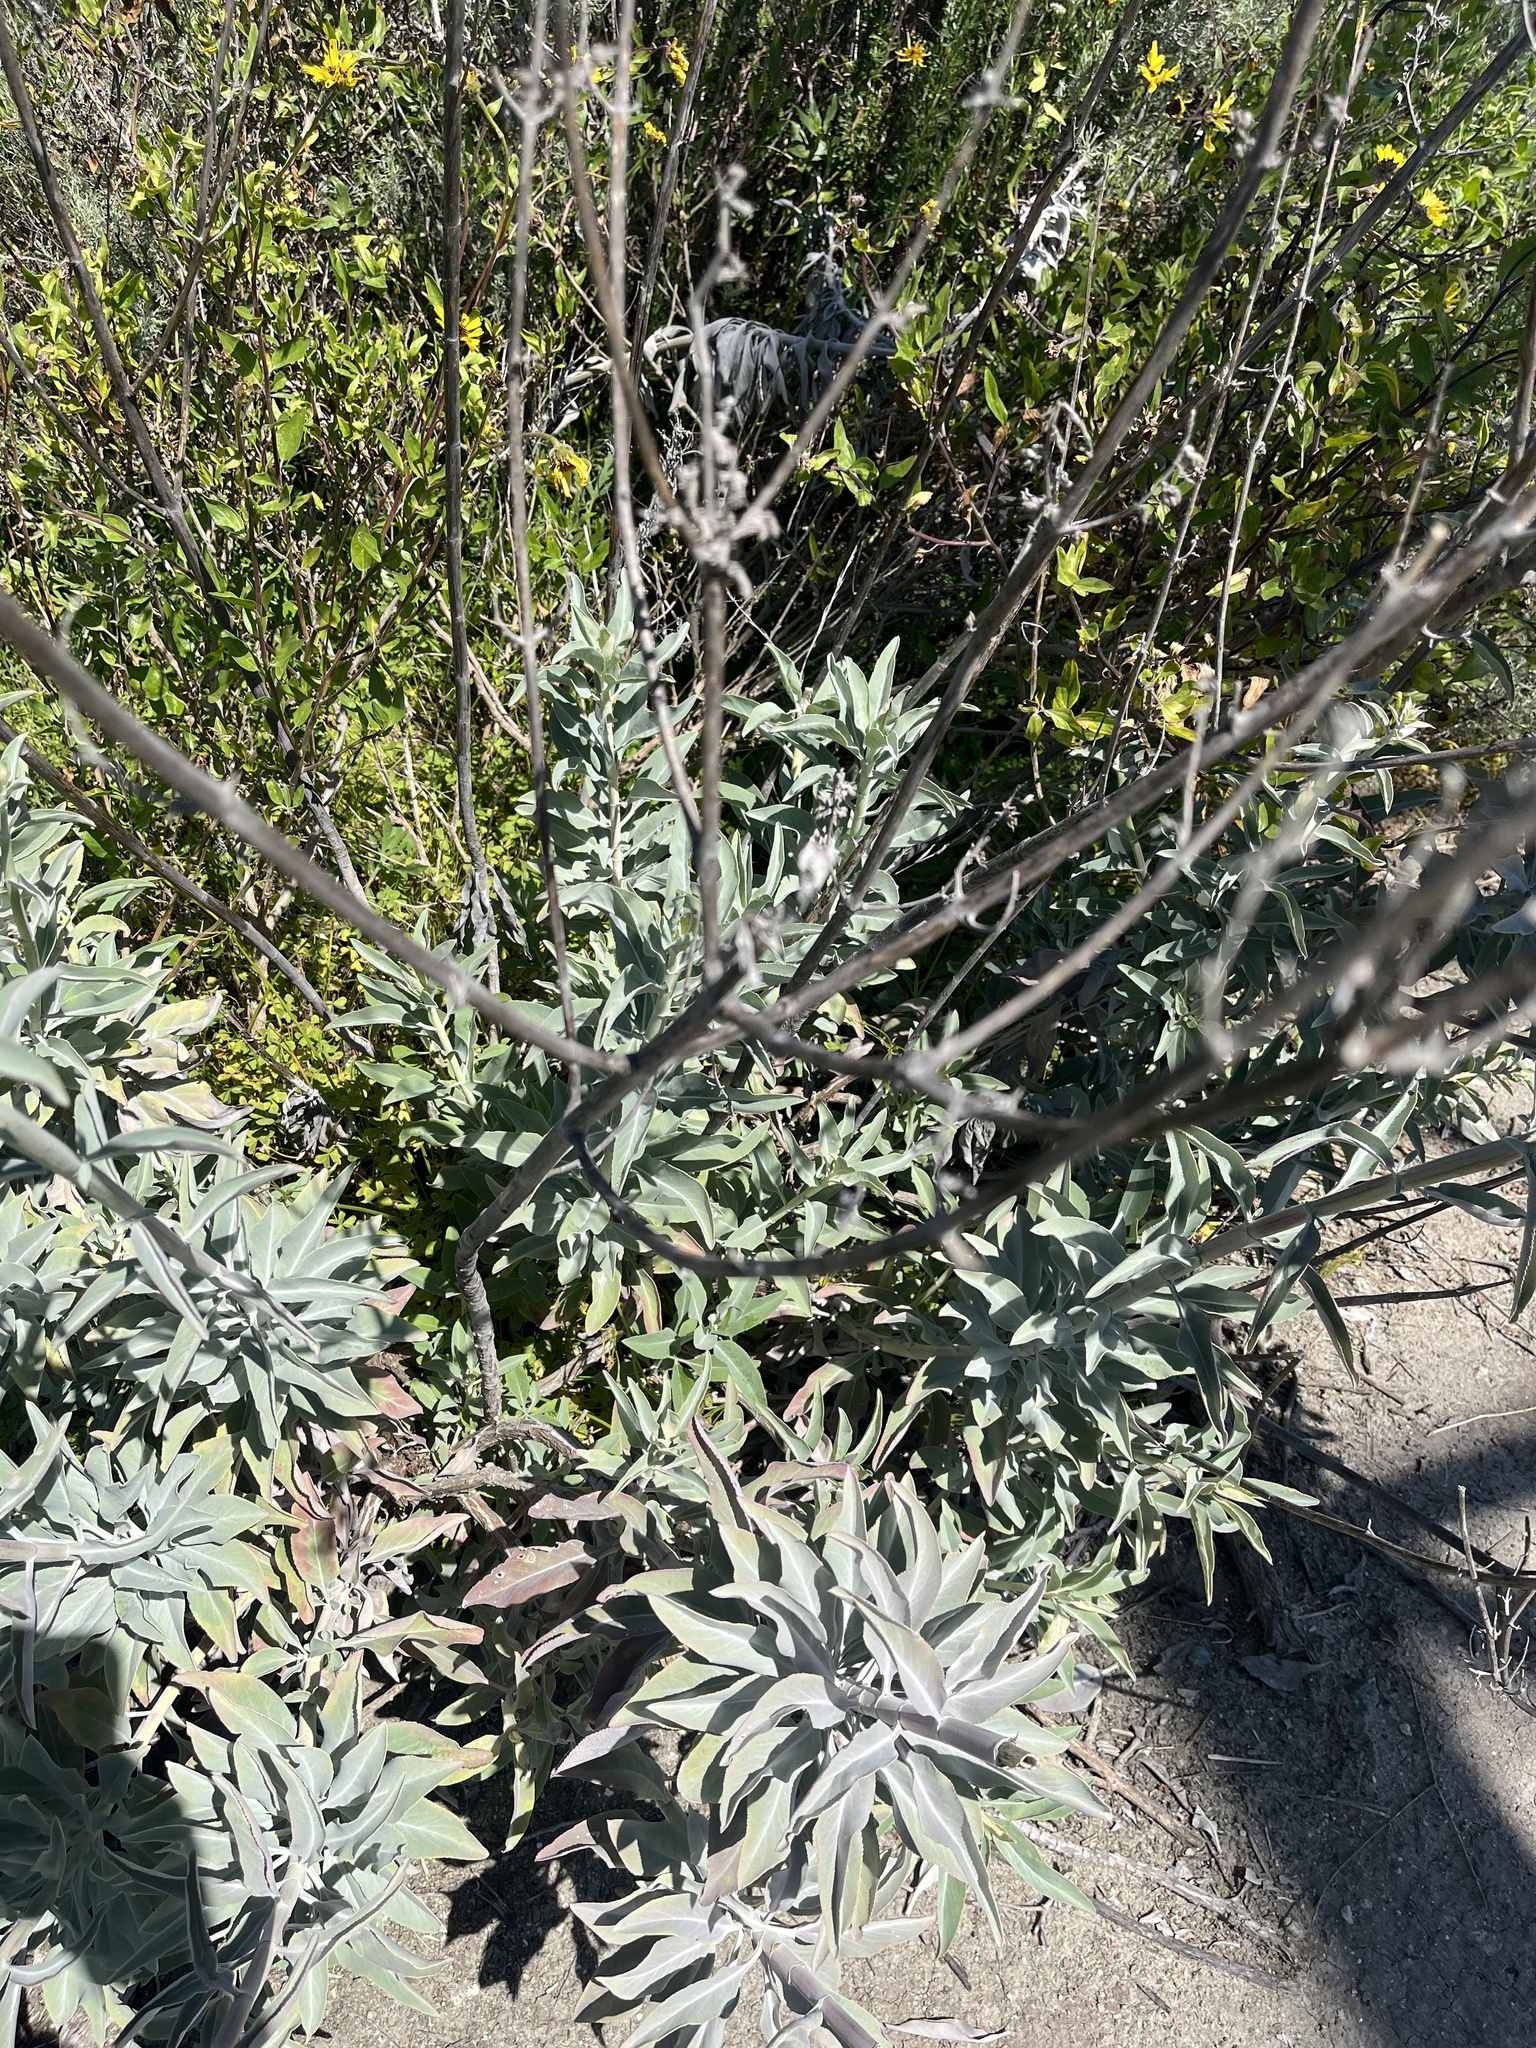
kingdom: Plantae
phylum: Tracheophyta
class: Magnoliopsida
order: Lamiales
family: Lamiaceae
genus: Salvia
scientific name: Salvia apiana
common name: White sage
